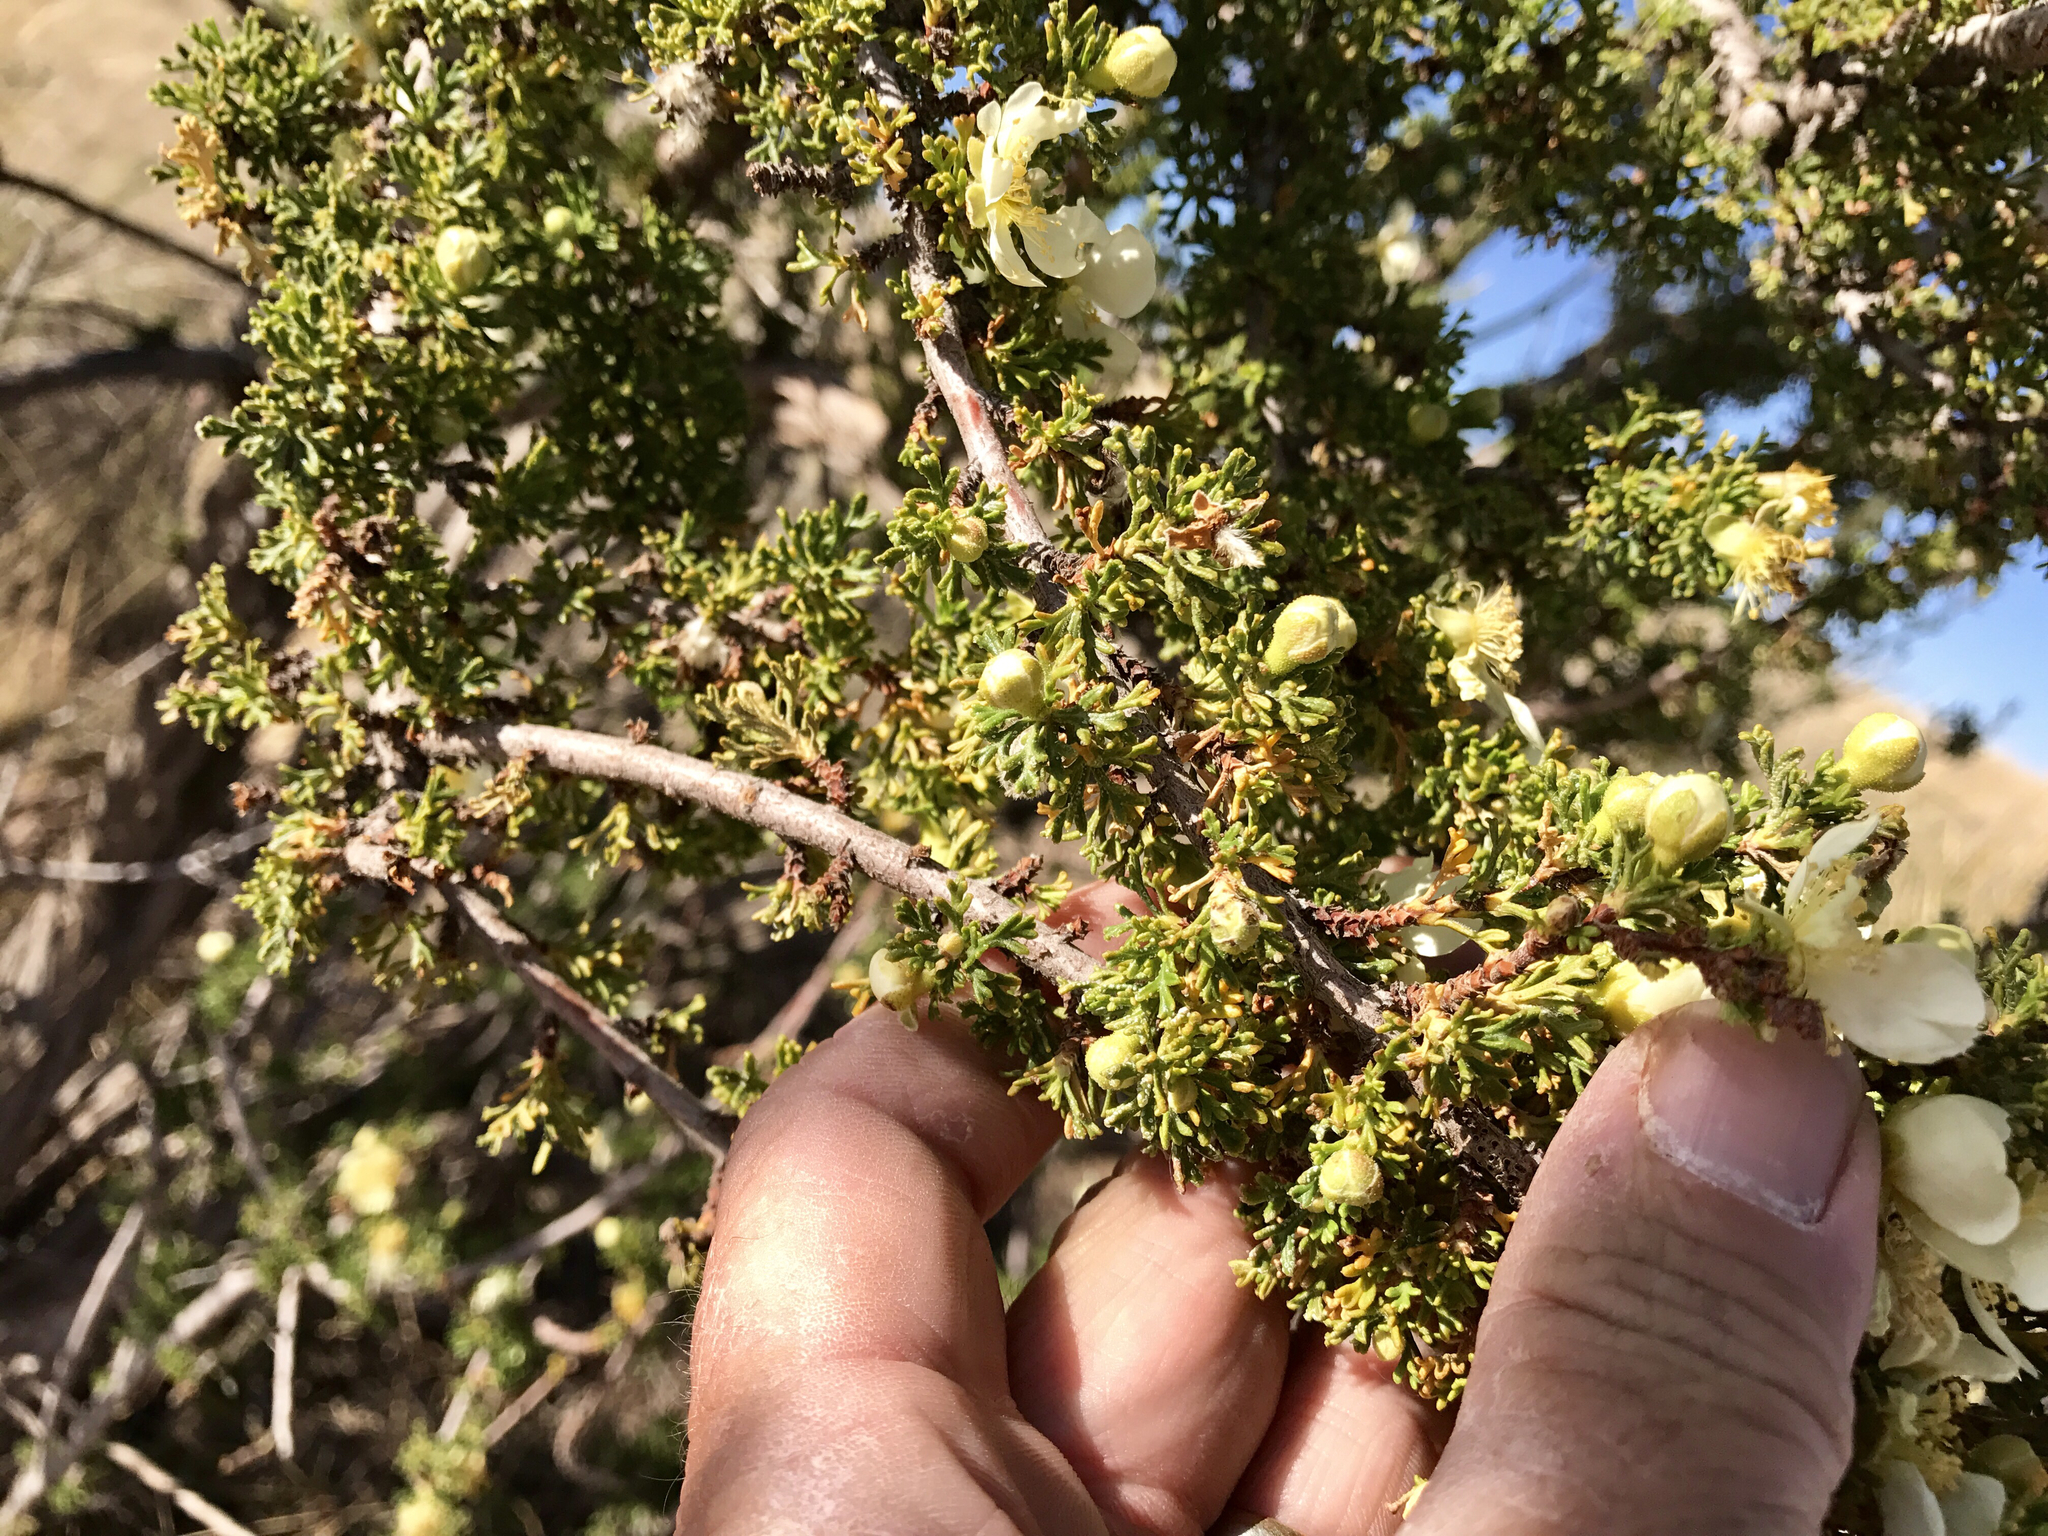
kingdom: Plantae
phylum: Tracheophyta
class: Magnoliopsida
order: Rosales
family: Rosaceae
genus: Purshia
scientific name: Purshia stansburiana
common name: Stansbury's cliffrose
